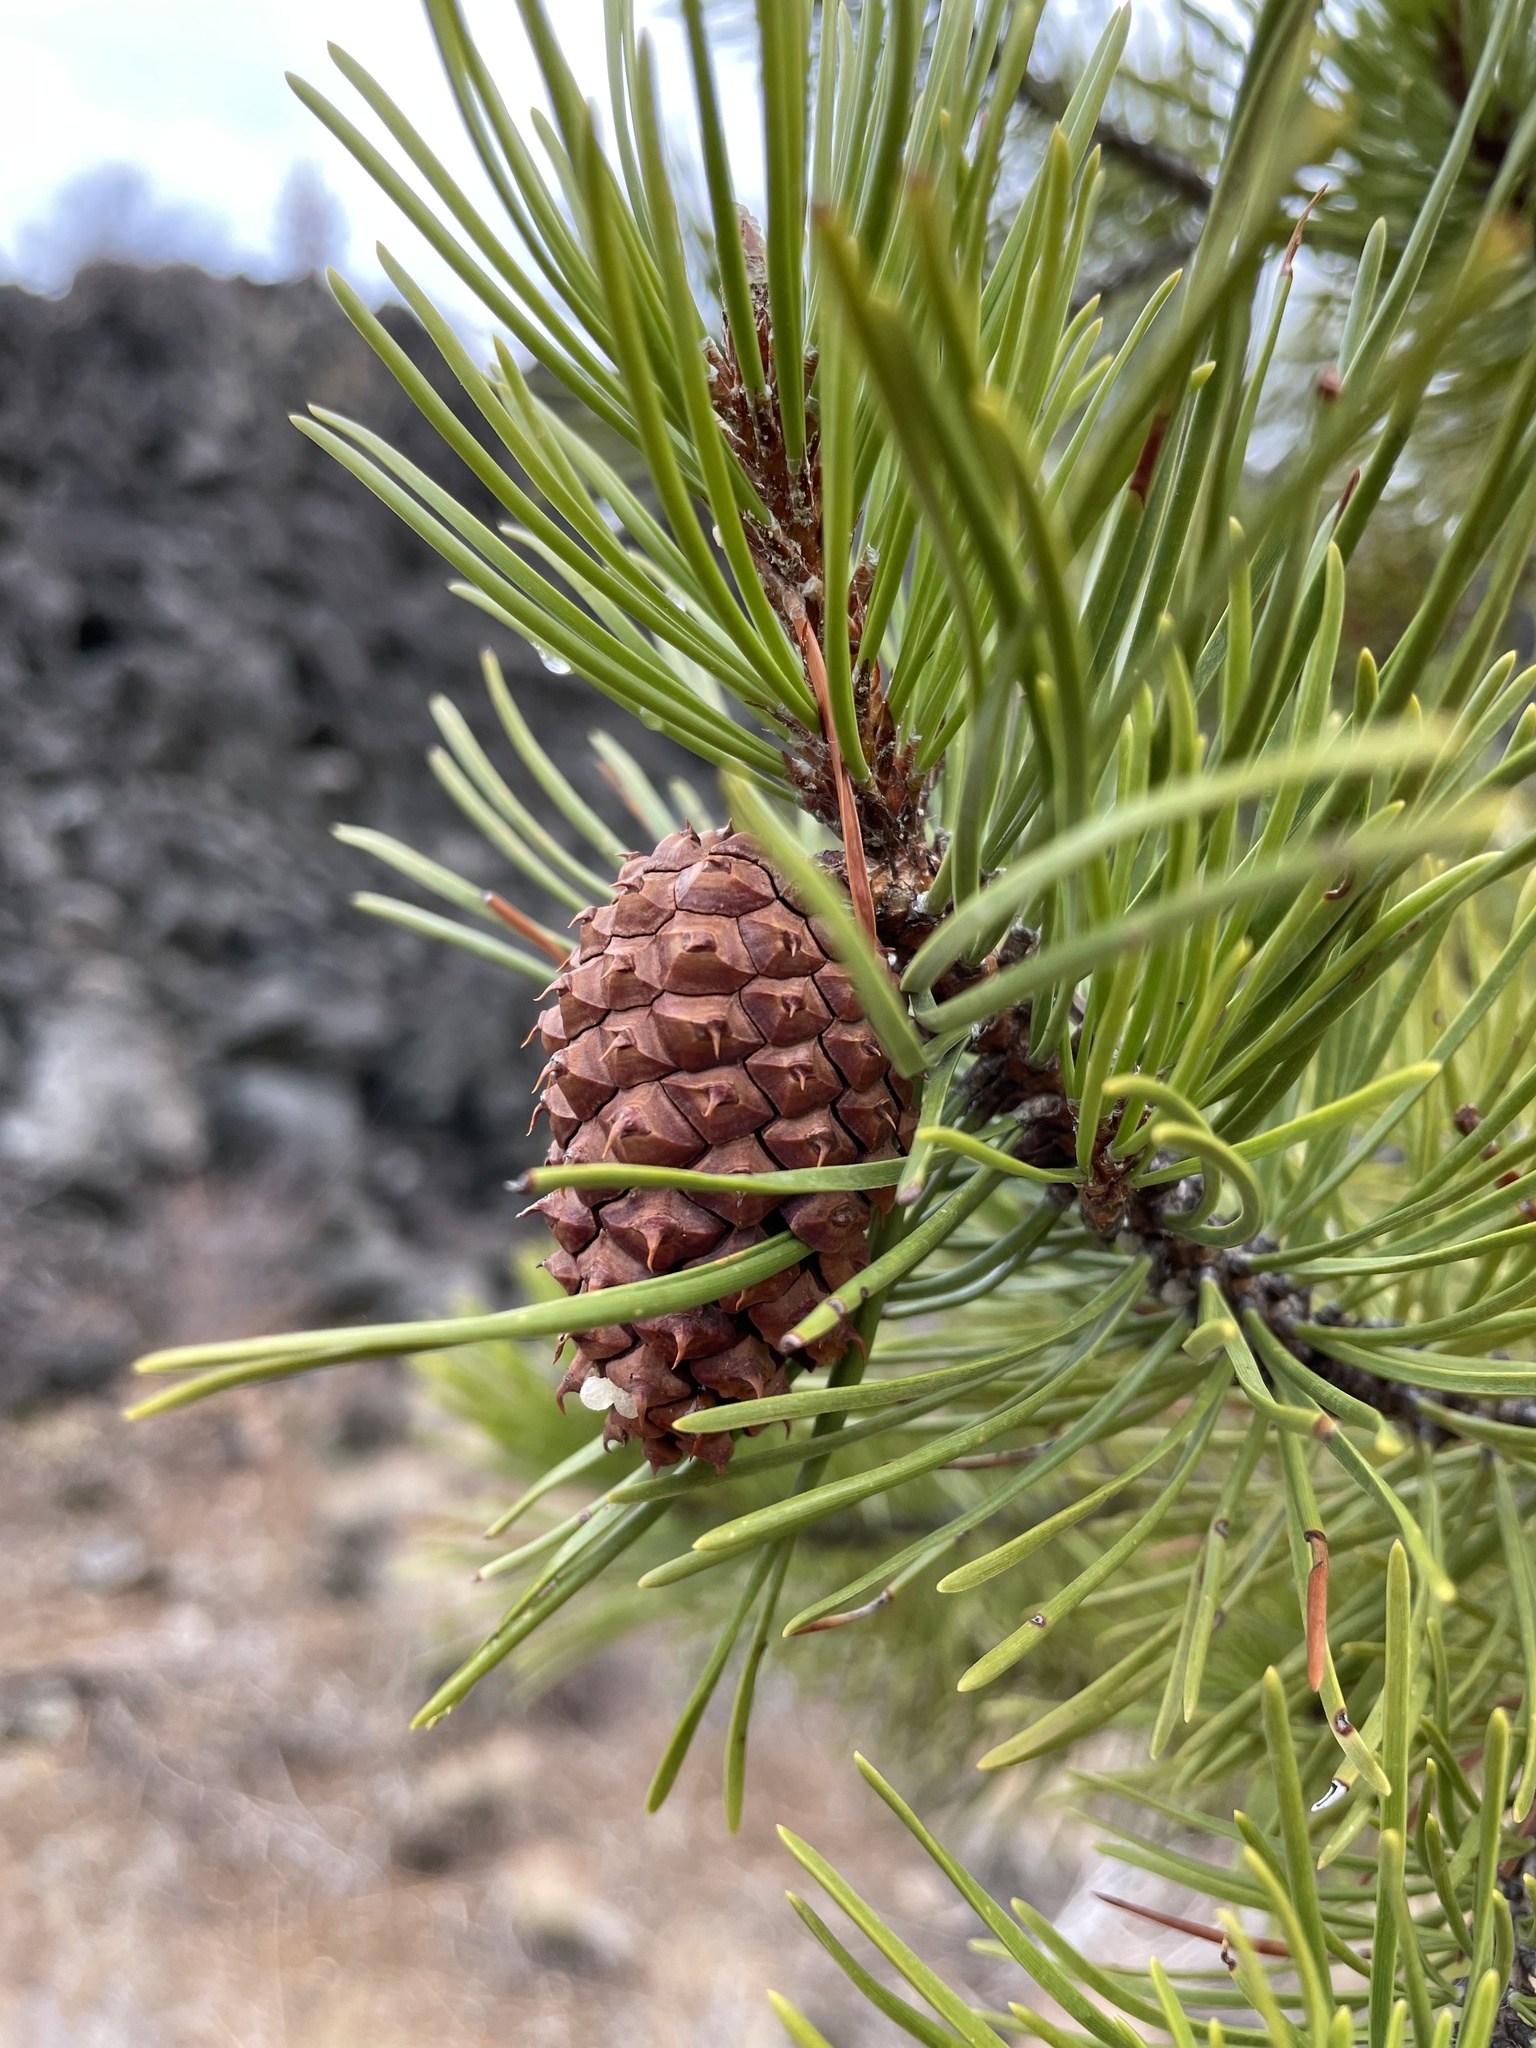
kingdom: Plantae
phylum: Tracheophyta
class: Pinopsida
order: Pinales
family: Pinaceae
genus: Pinus
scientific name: Pinus contorta
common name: Lodgepole pine
